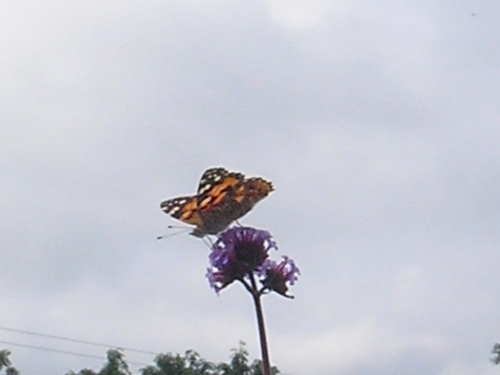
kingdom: Animalia
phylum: Arthropoda
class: Insecta
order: Lepidoptera
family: Nymphalidae
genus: Vanessa
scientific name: Vanessa cardui
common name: Painted lady
